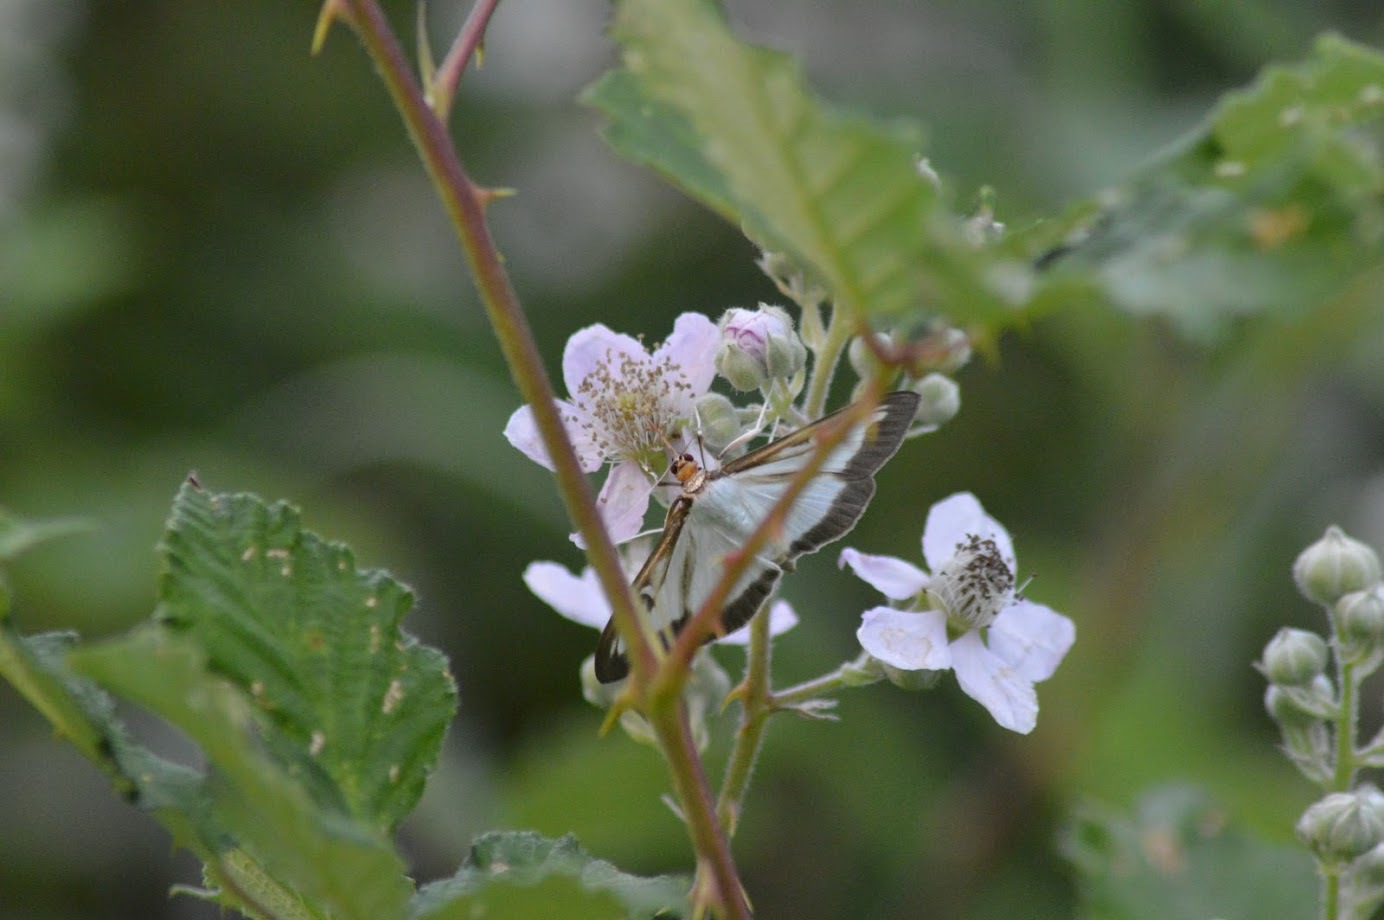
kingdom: Animalia
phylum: Arthropoda
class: Insecta
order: Lepidoptera
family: Crambidae
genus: Cydalima
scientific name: Cydalima perspectalis
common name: Box tree moth
